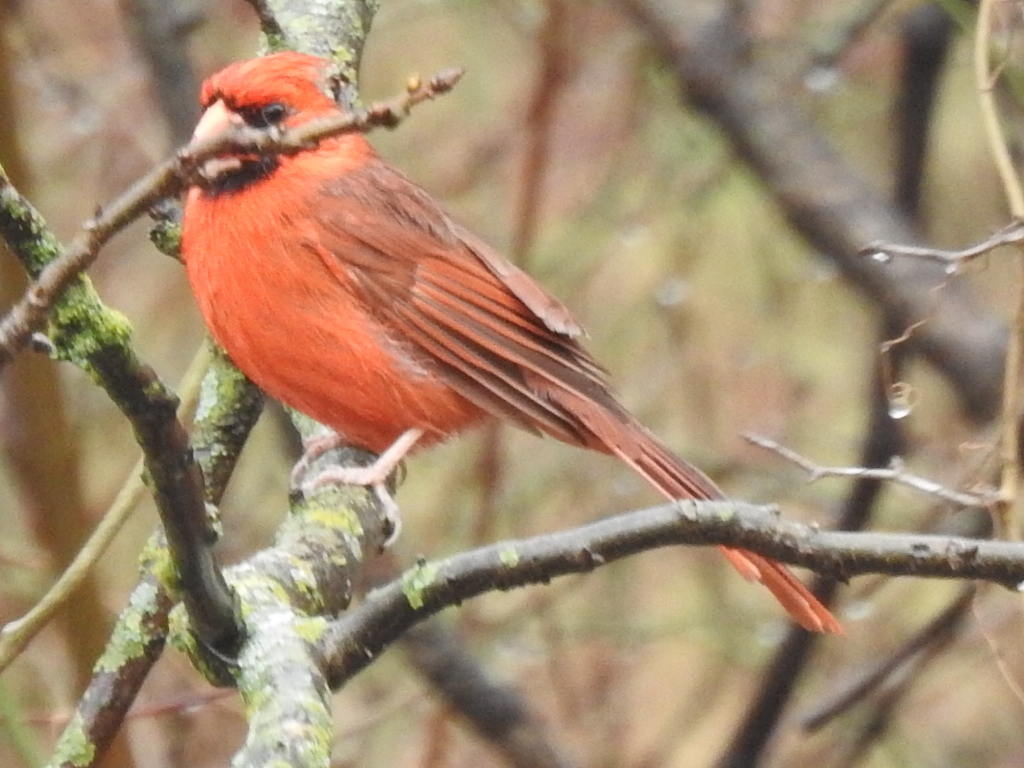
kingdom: Animalia
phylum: Chordata
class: Aves
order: Passeriformes
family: Cardinalidae
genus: Cardinalis
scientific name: Cardinalis cardinalis
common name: Northern cardinal
